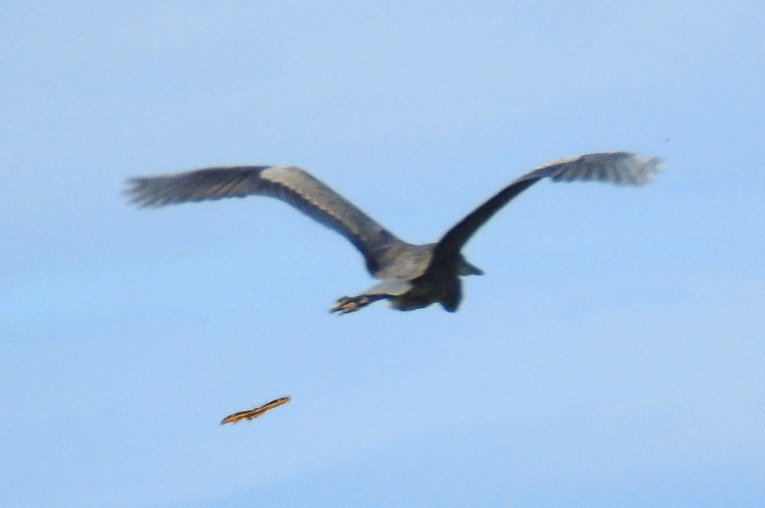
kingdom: Animalia
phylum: Chordata
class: Aves
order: Pelecaniformes
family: Ardeidae
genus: Ardea
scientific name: Ardea herodias
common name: Great blue heron
